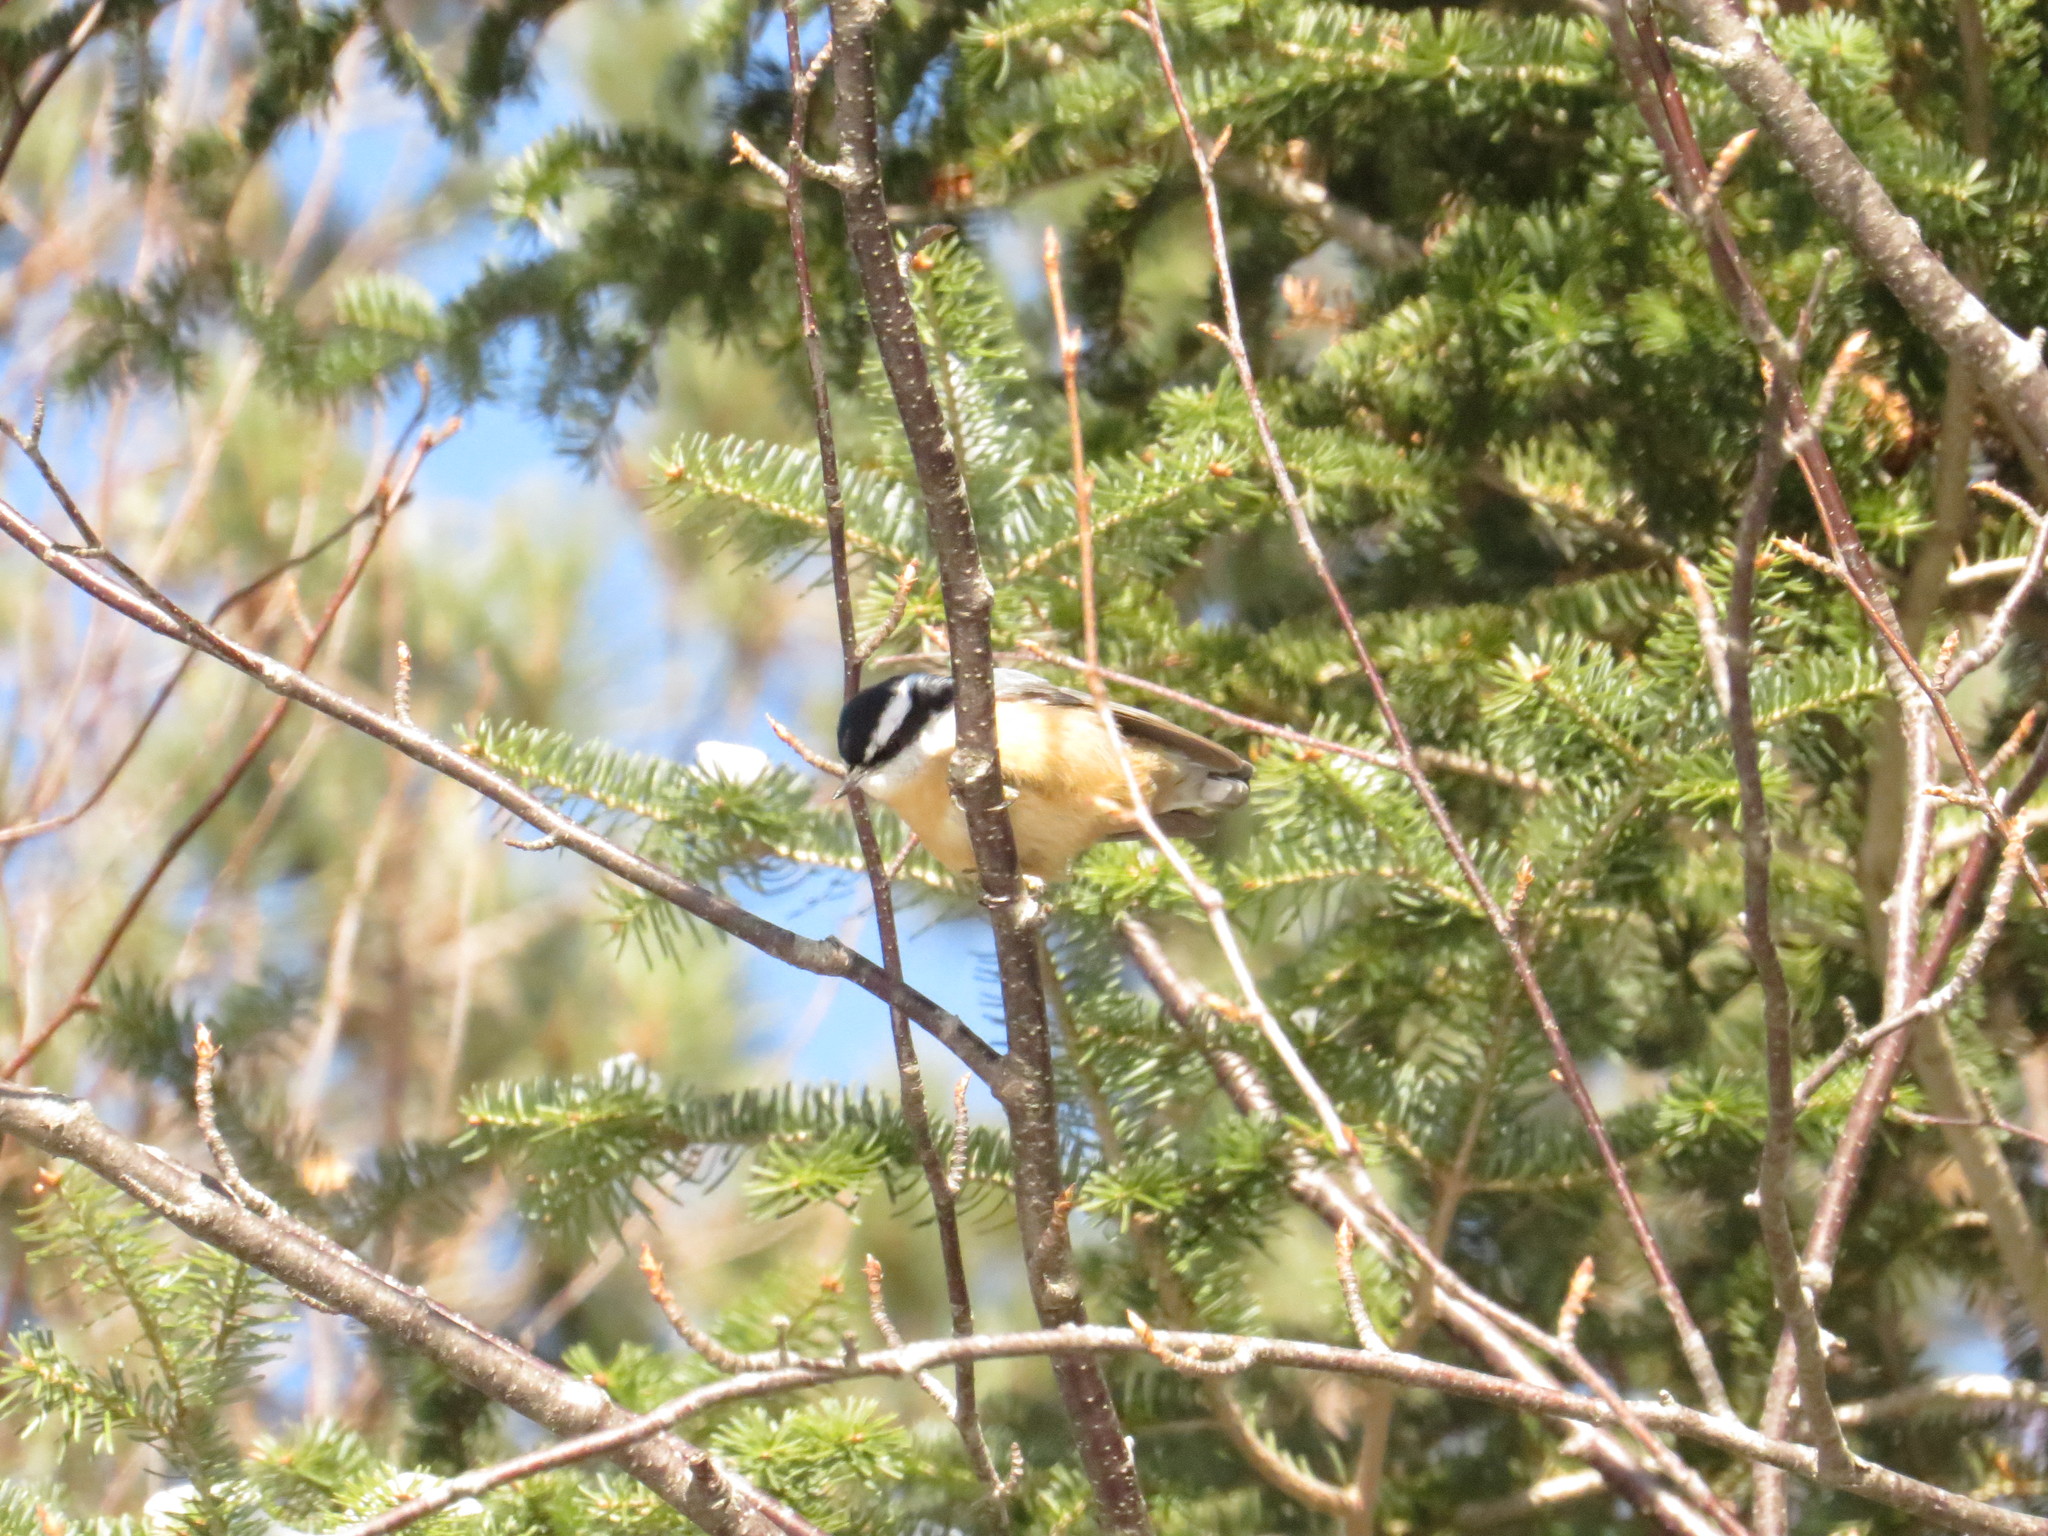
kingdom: Animalia
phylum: Chordata
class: Aves
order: Passeriformes
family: Sittidae
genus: Sitta
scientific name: Sitta canadensis
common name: Red-breasted nuthatch
